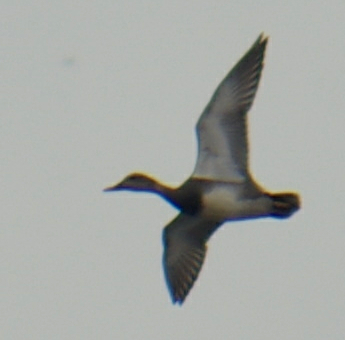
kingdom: Animalia
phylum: Chordata
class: Aves
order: Anseriformes
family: Anatidae
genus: Mareca
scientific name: Mareca strepera
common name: Gadwall
